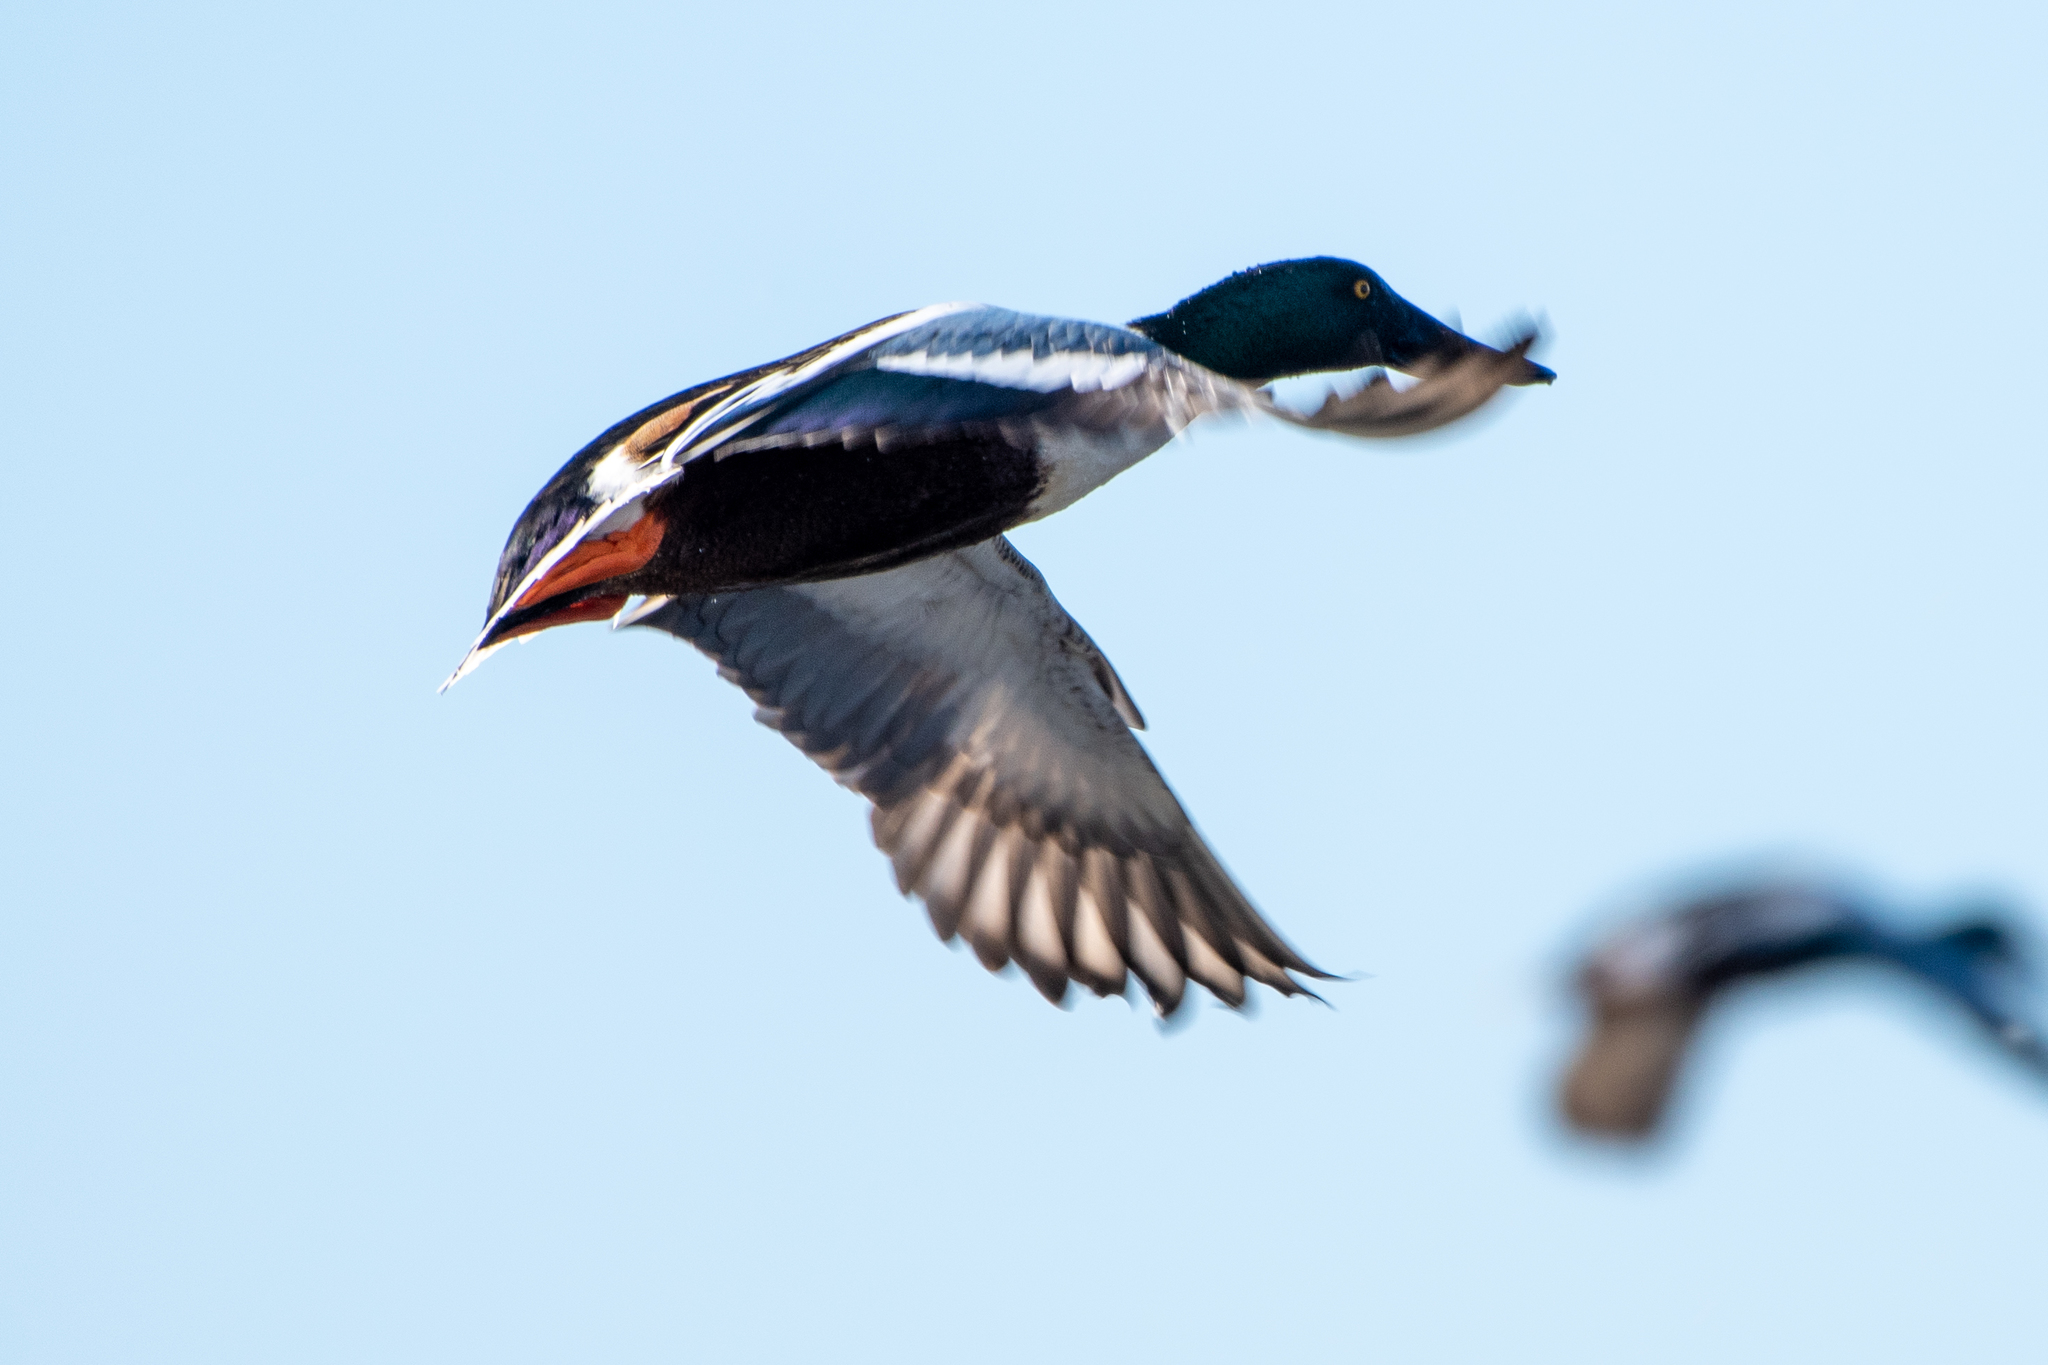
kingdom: Animalia
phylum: Chordata
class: Aves
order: Anseriformes
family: Anatidae
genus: Spatula
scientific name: Spatula clypeata
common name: Northern shoveler
